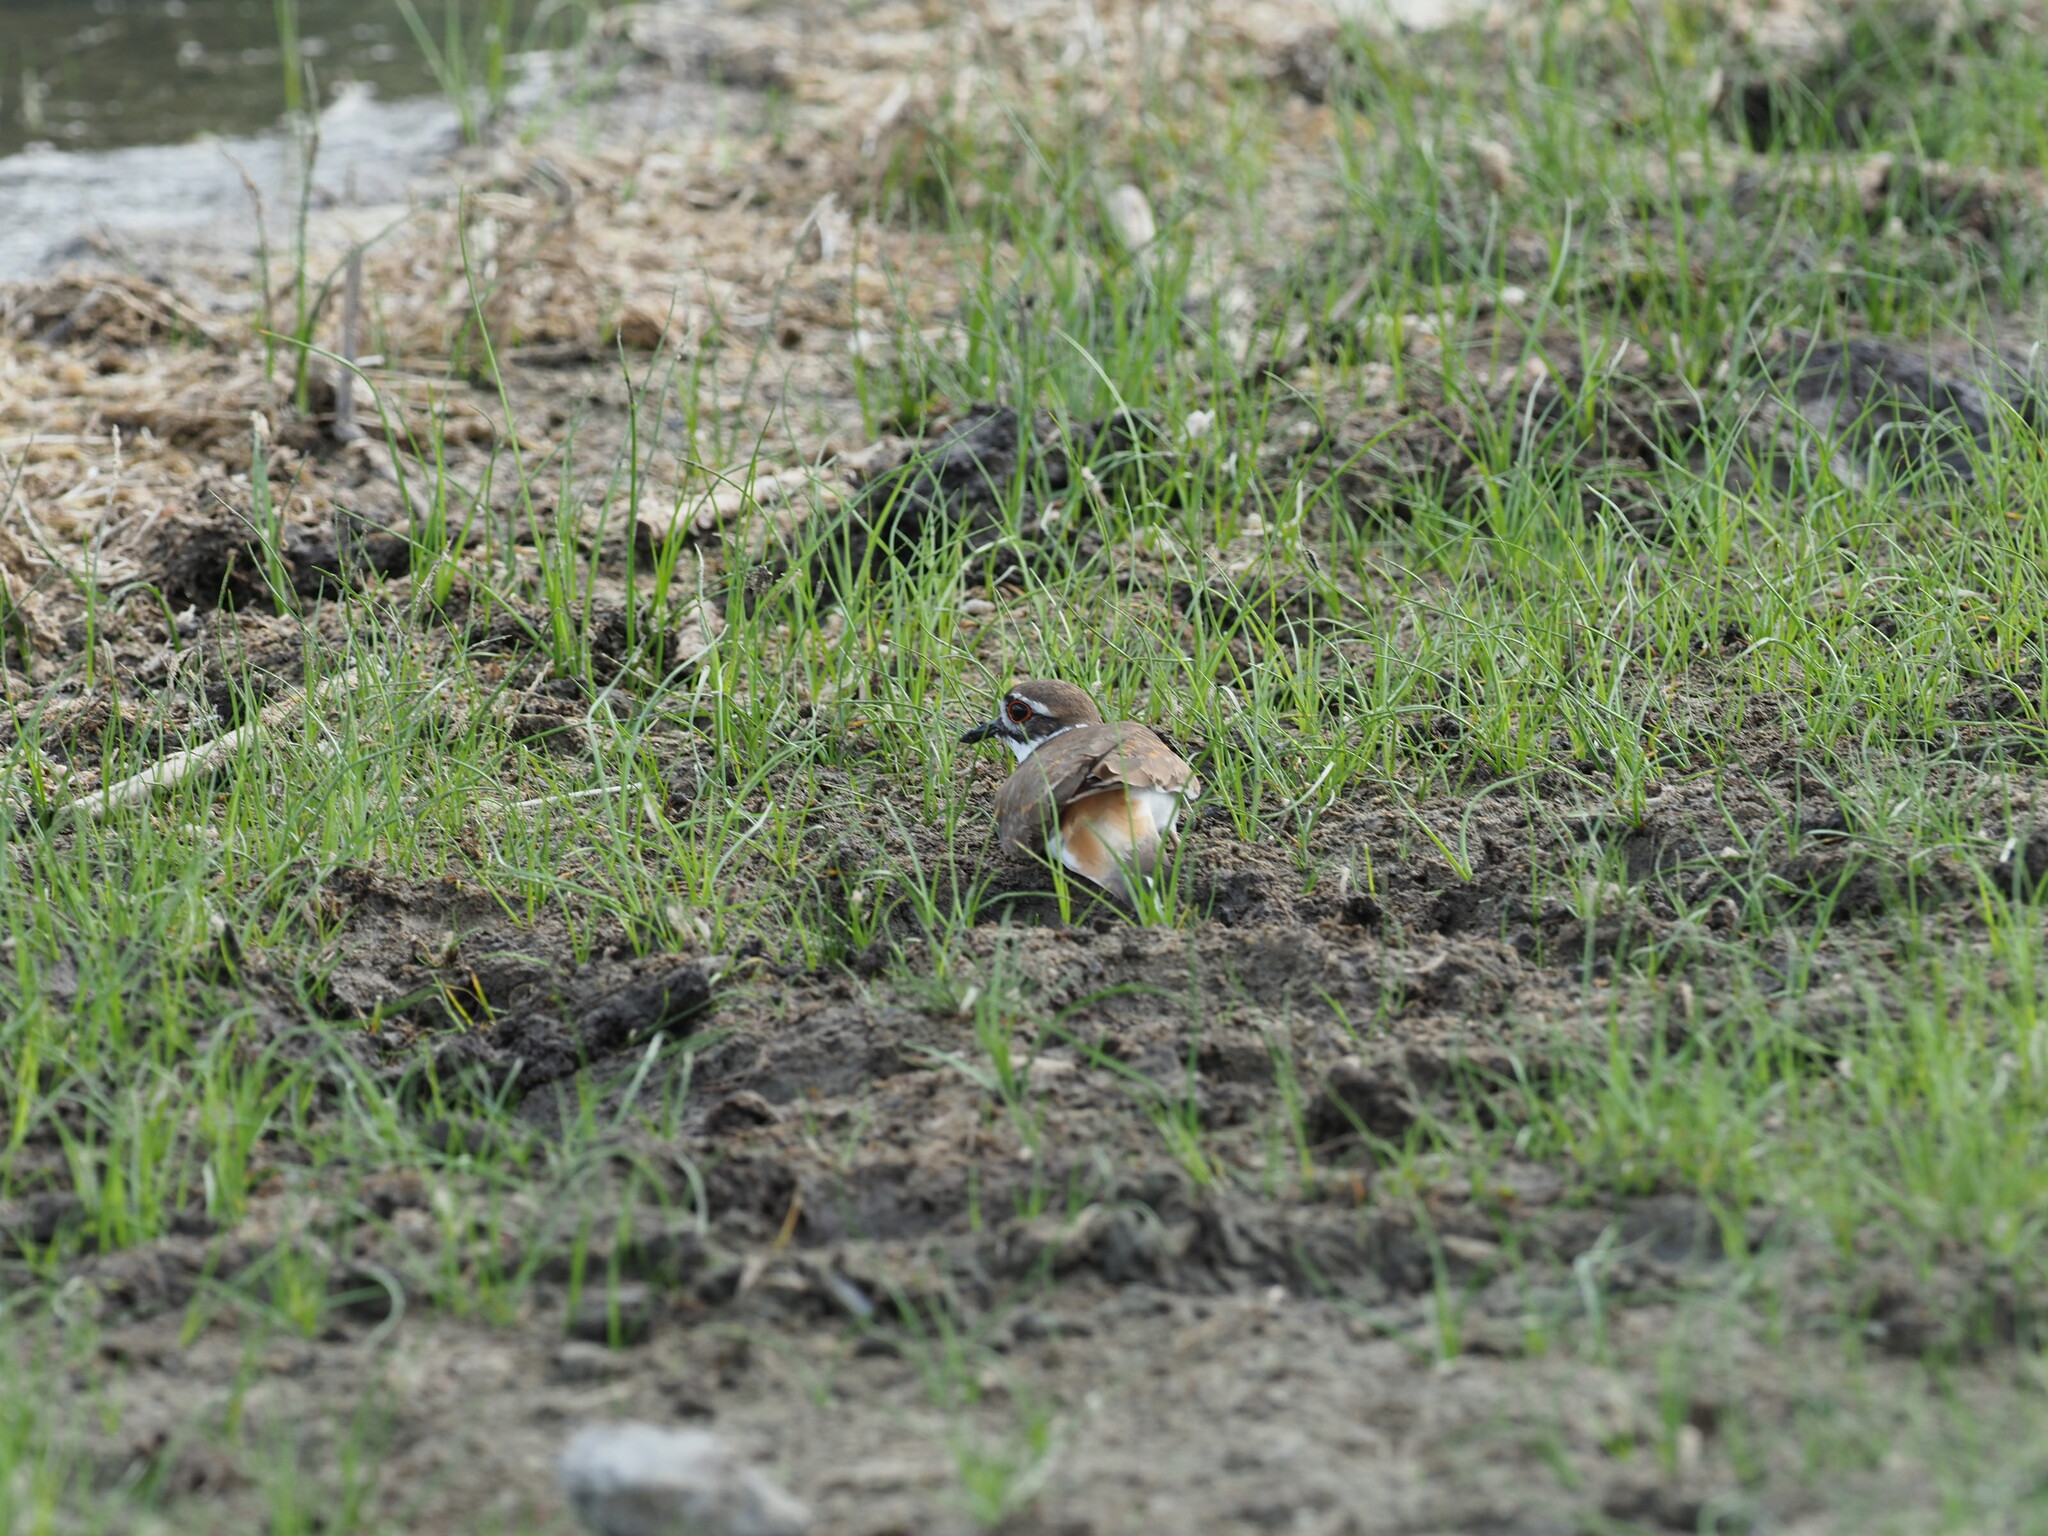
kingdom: Animalia
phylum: Chordata
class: Aves
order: Charadriiformes
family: Charadriidae
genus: Charadrius
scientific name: Charadrius vociferus
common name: Killdeer
